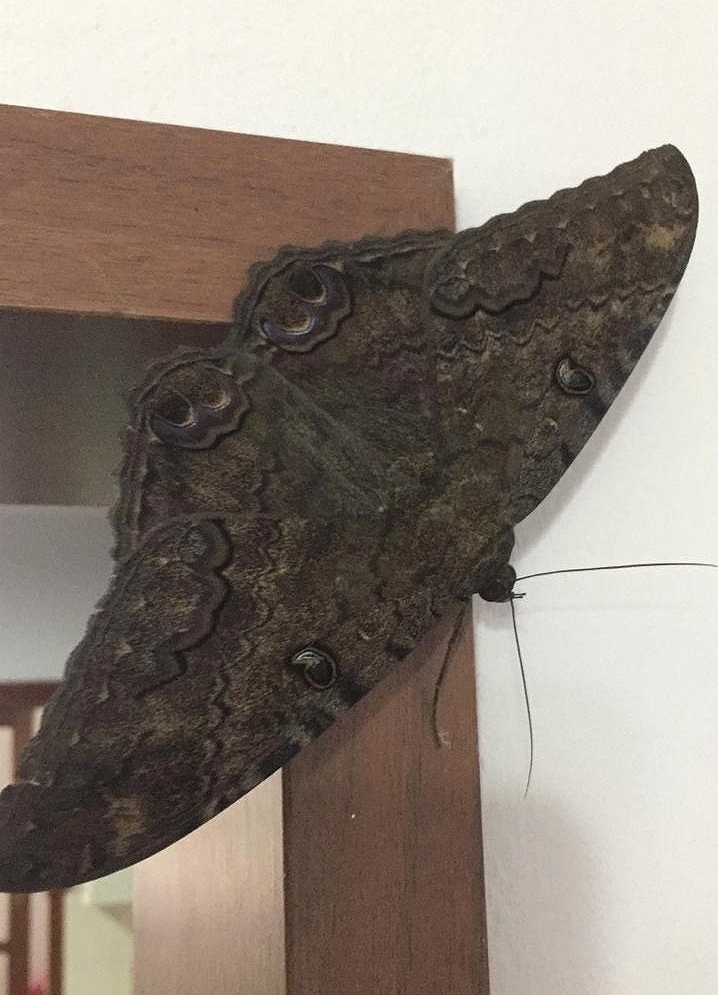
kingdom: Animalia
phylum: Arthropoda
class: Insecta
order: Lepidoptera
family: Erebidae
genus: Ascalapha
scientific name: Ascalapha odorata
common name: Black witch
